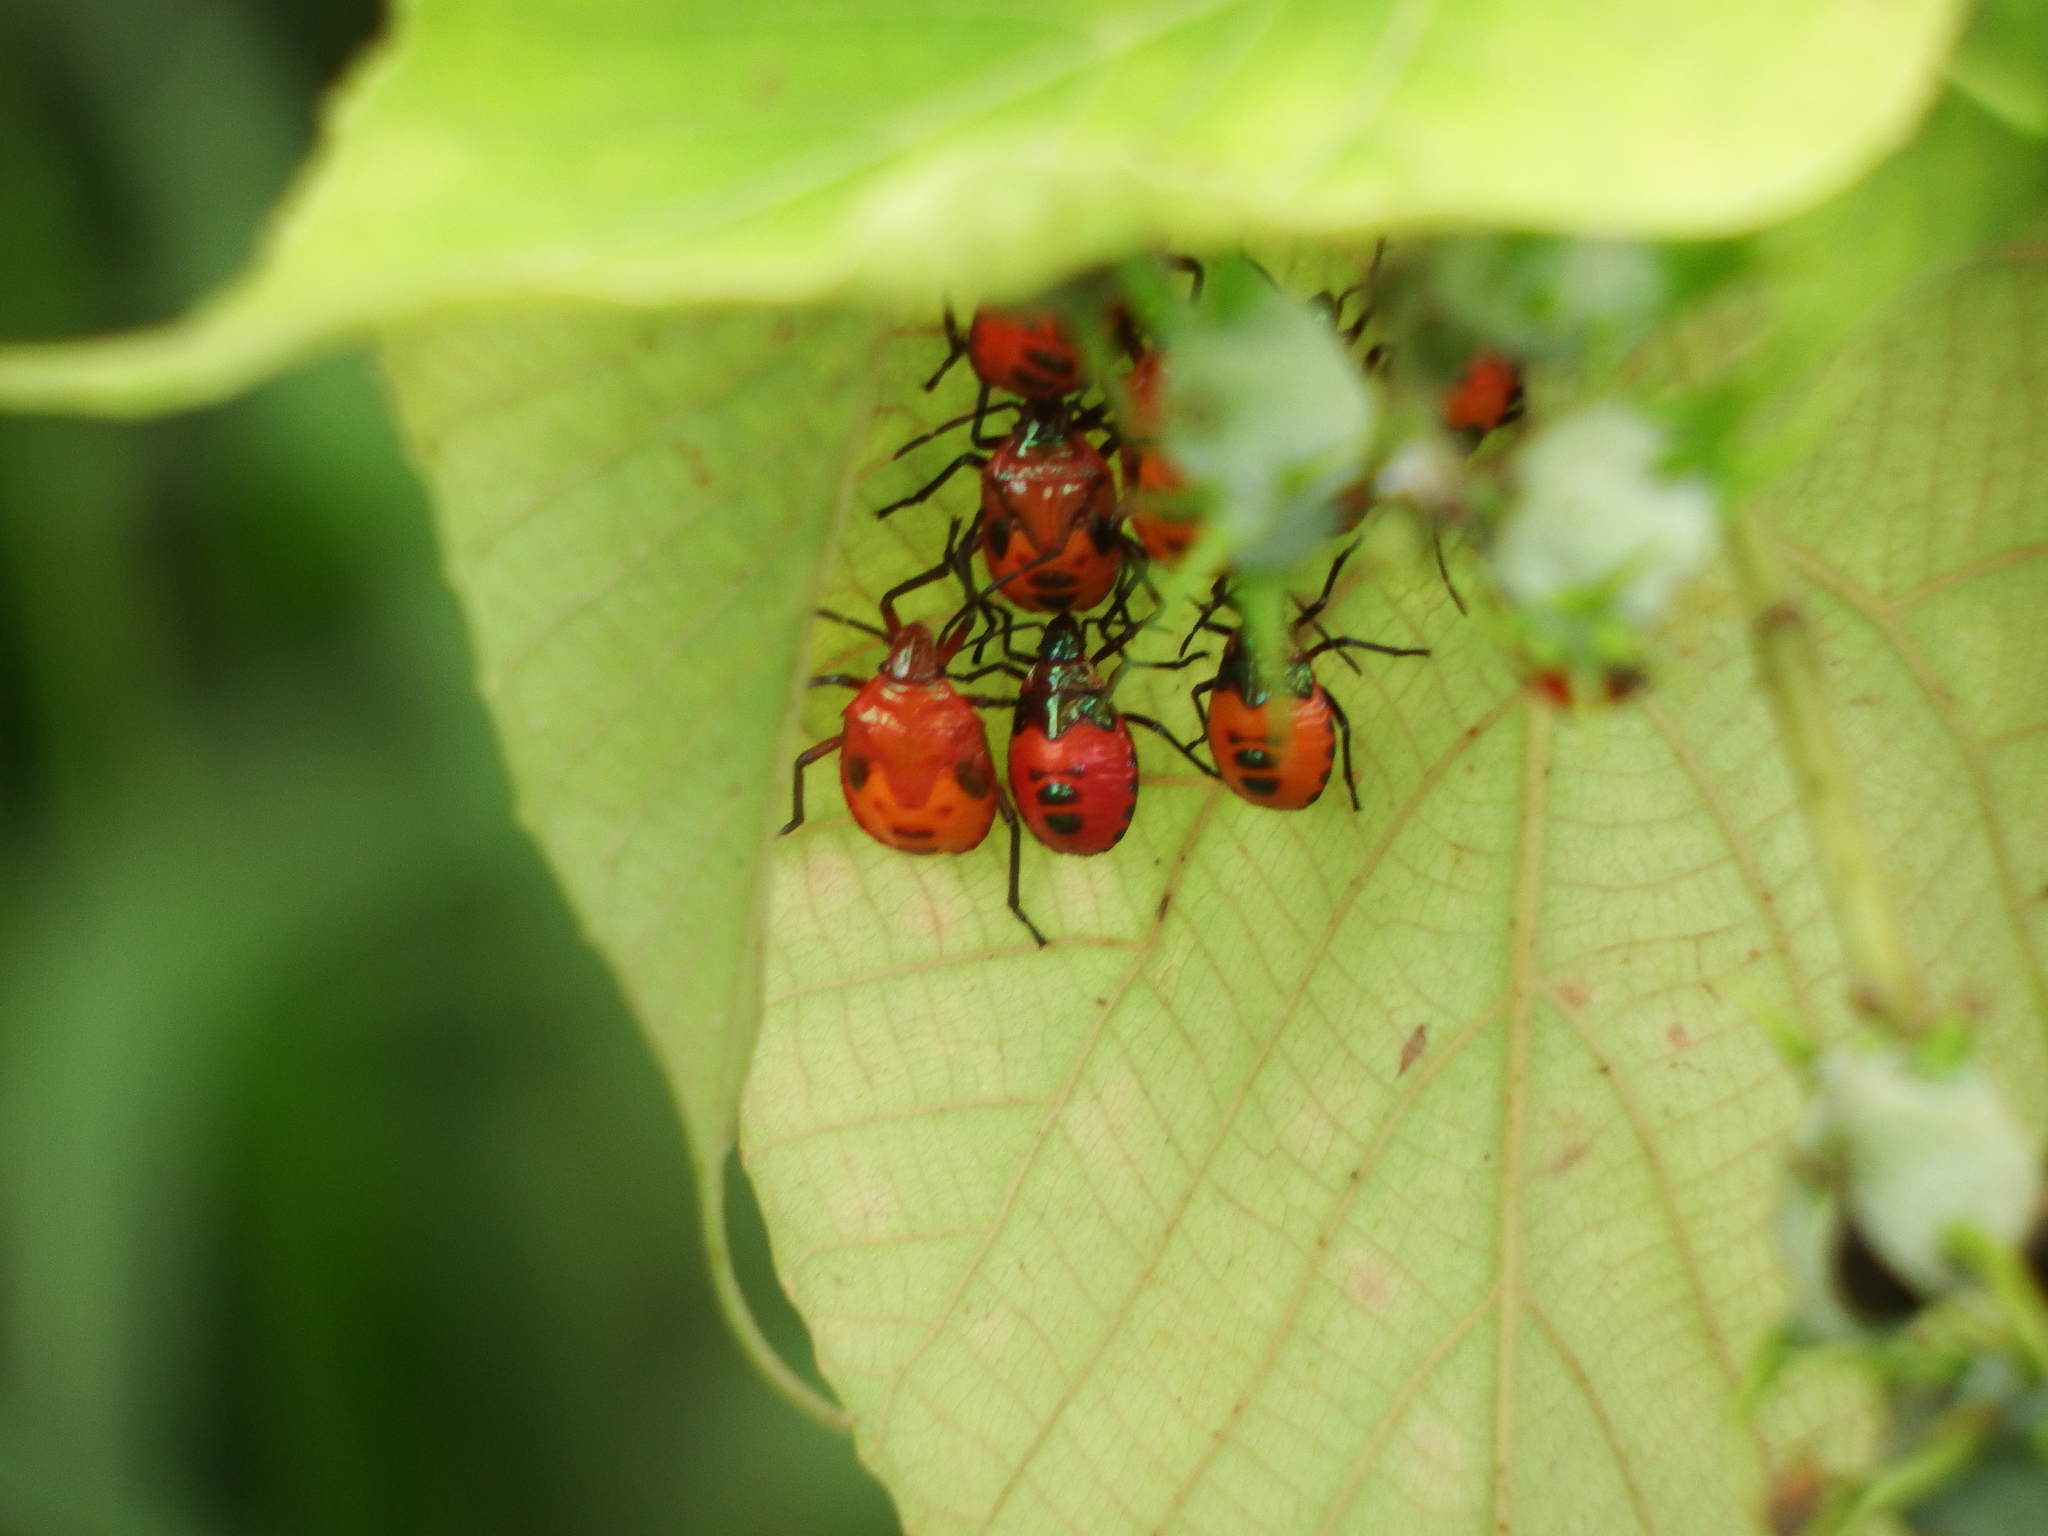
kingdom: Animalia
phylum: Arthropoda
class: Insecta
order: Hemiptera
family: Scutelleridae
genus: Cantao
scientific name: Cantao ocellatus
